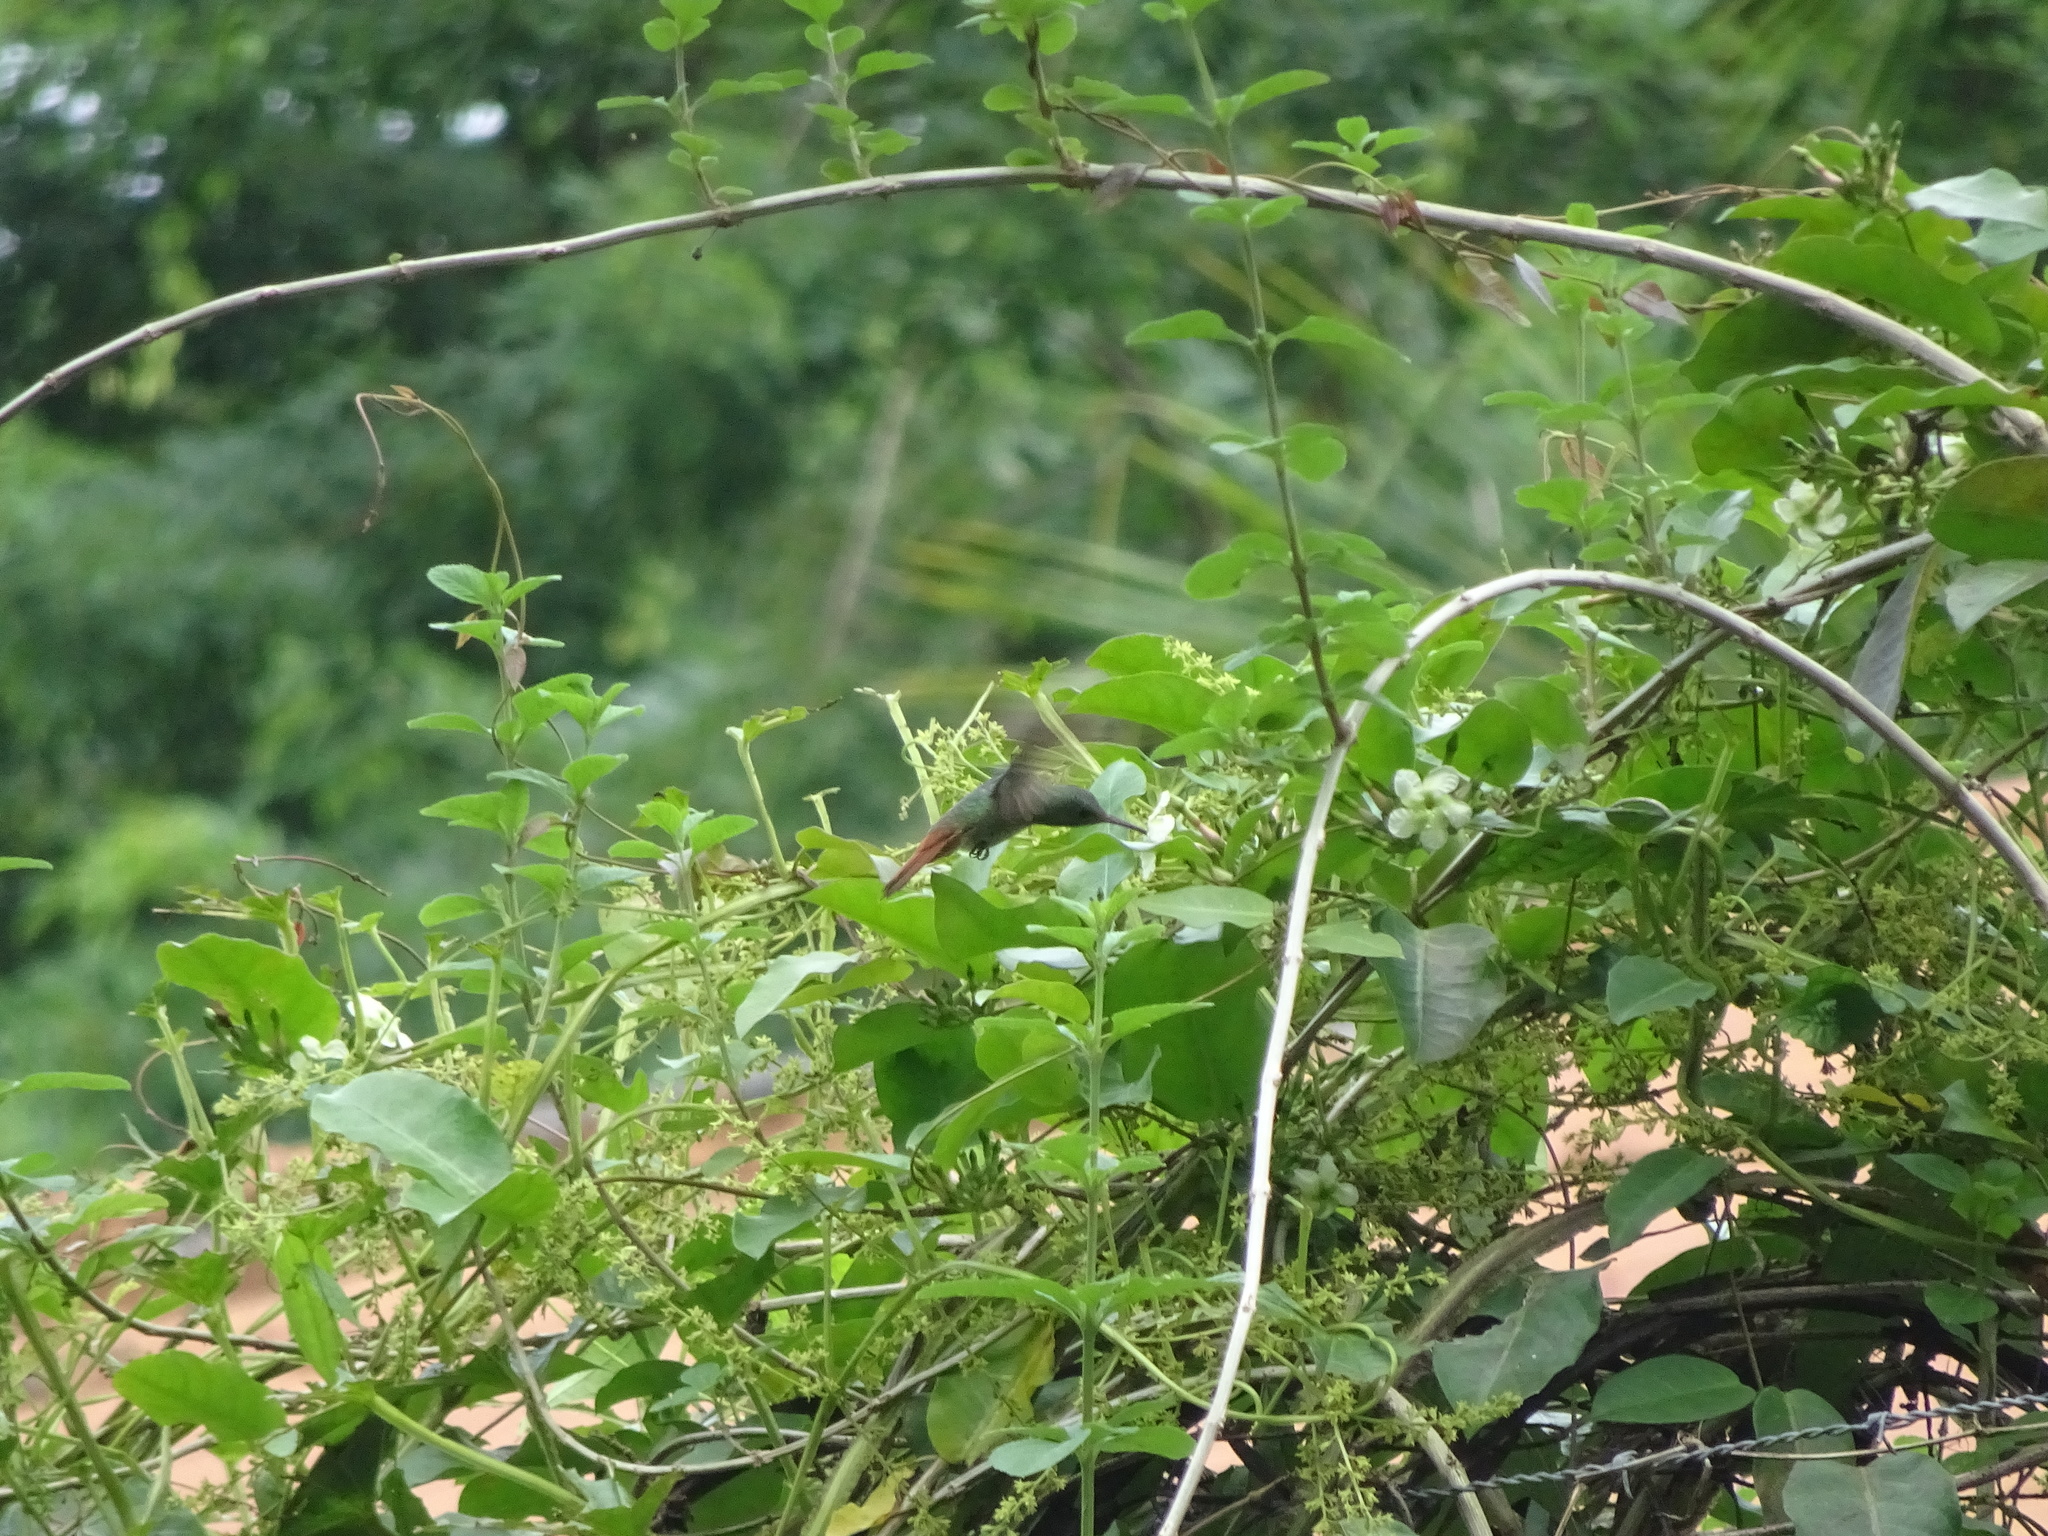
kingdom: Animalia
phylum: Chordata
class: Aves
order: Apodiformes
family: Trochilidae
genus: Amazilia
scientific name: Amazilia tzacatl
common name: Rufous-tailed hummingbird
